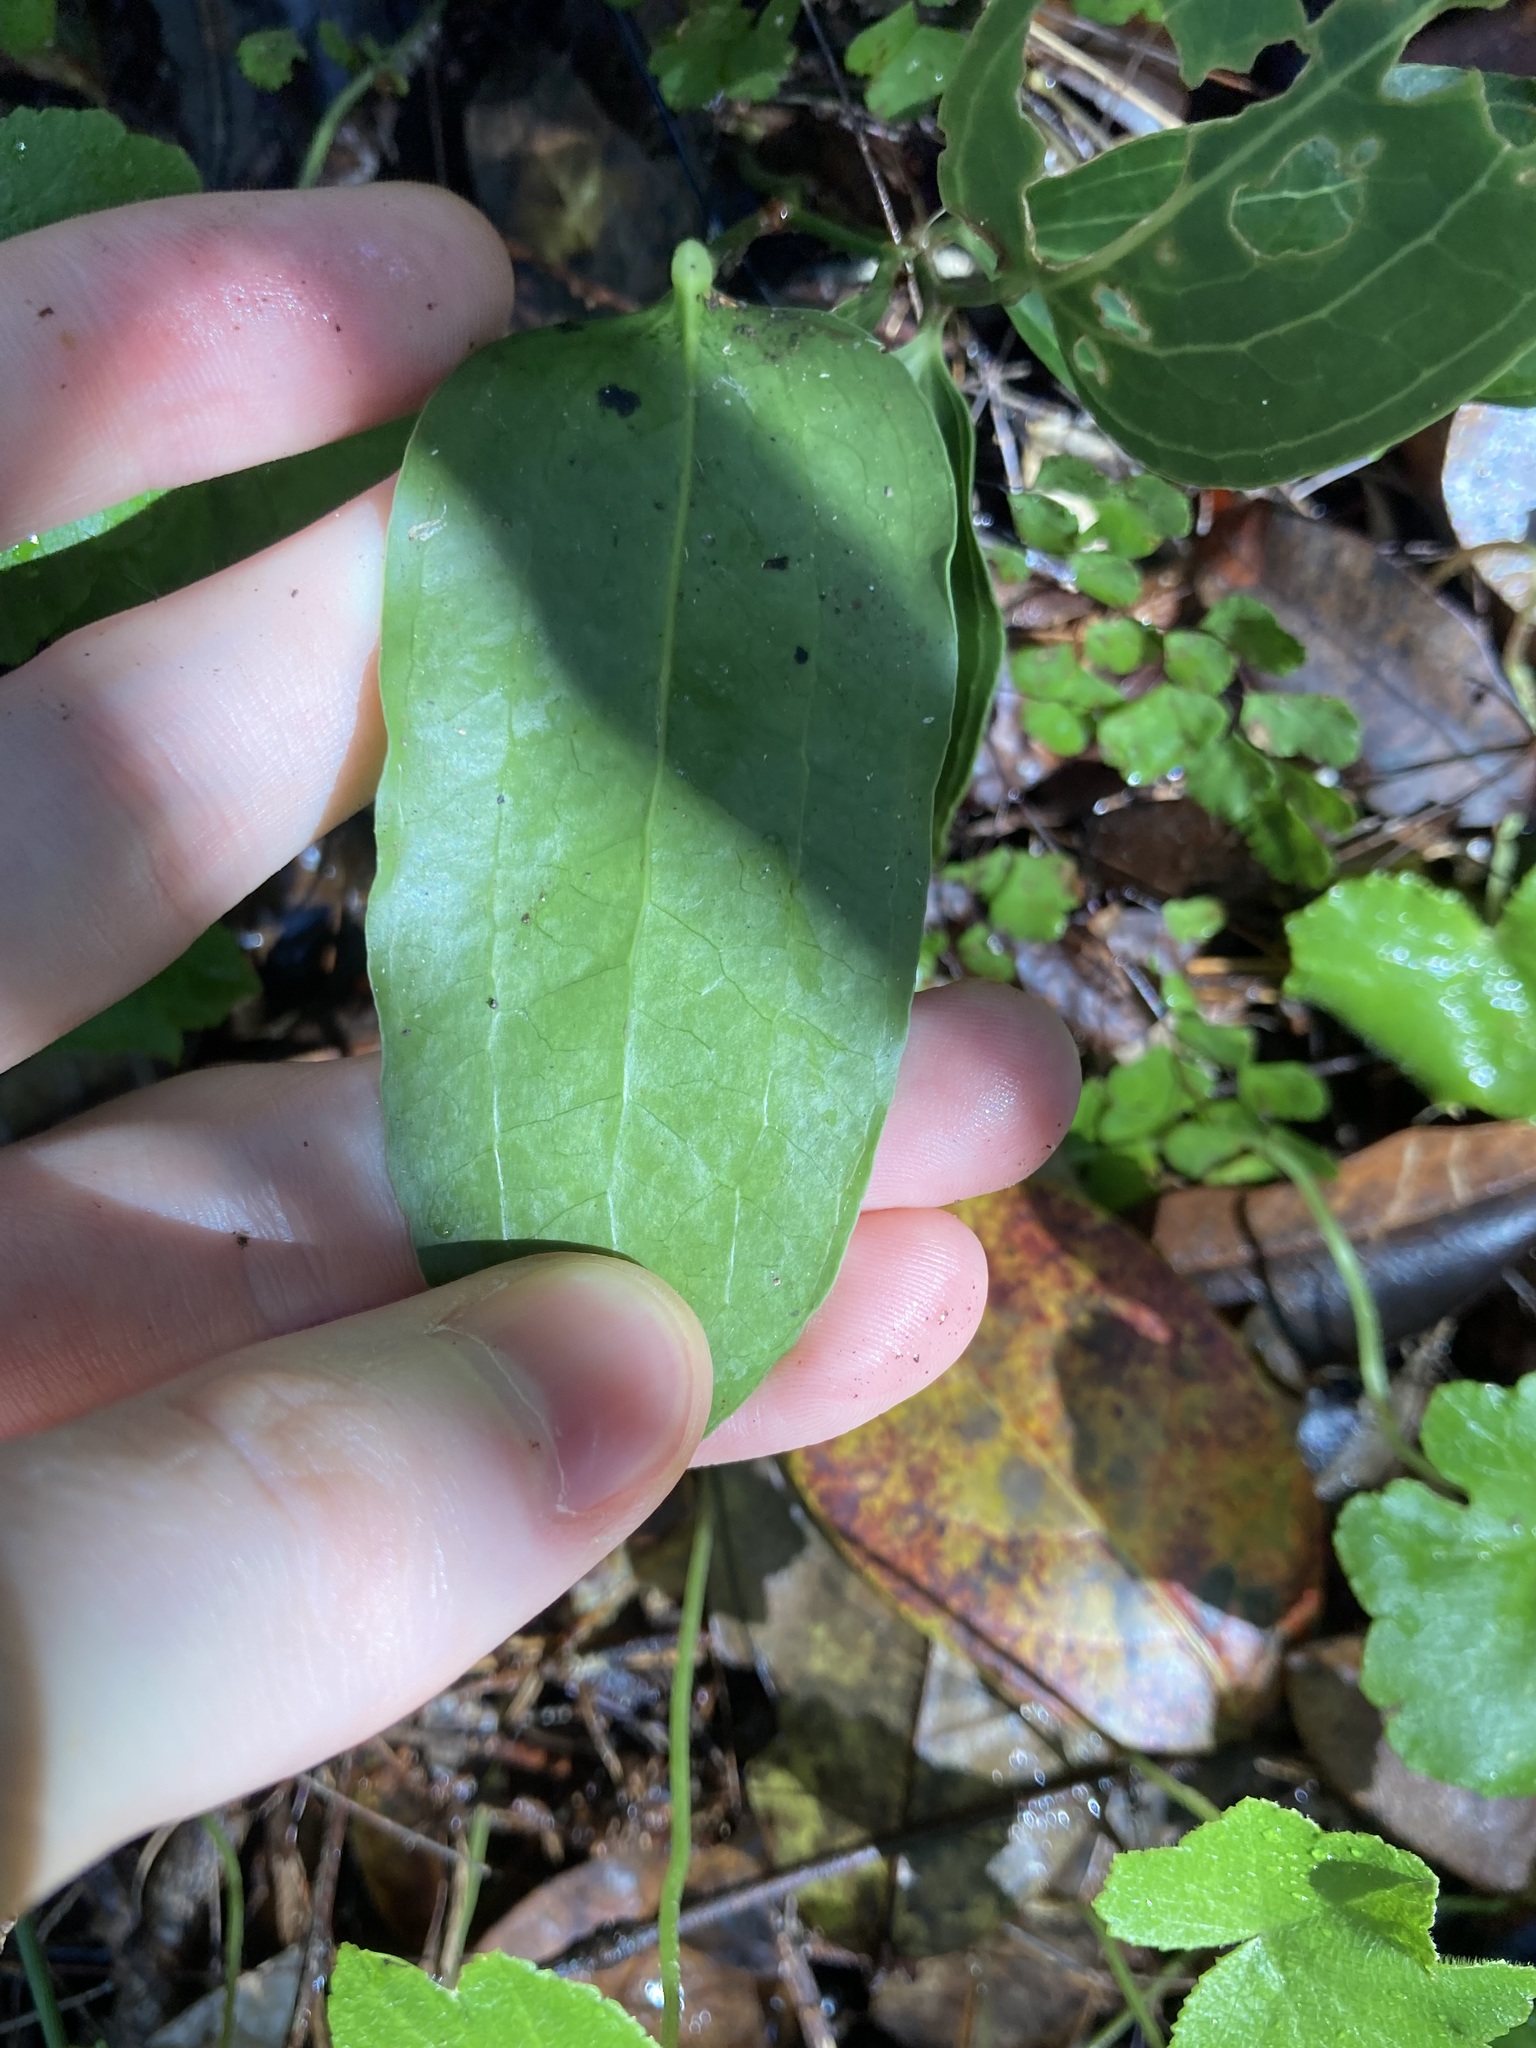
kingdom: Plantae
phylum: Tracheophyta
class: Liliopsida
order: Liliales
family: Smilacaceae
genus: Smilax
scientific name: Smilax australis
